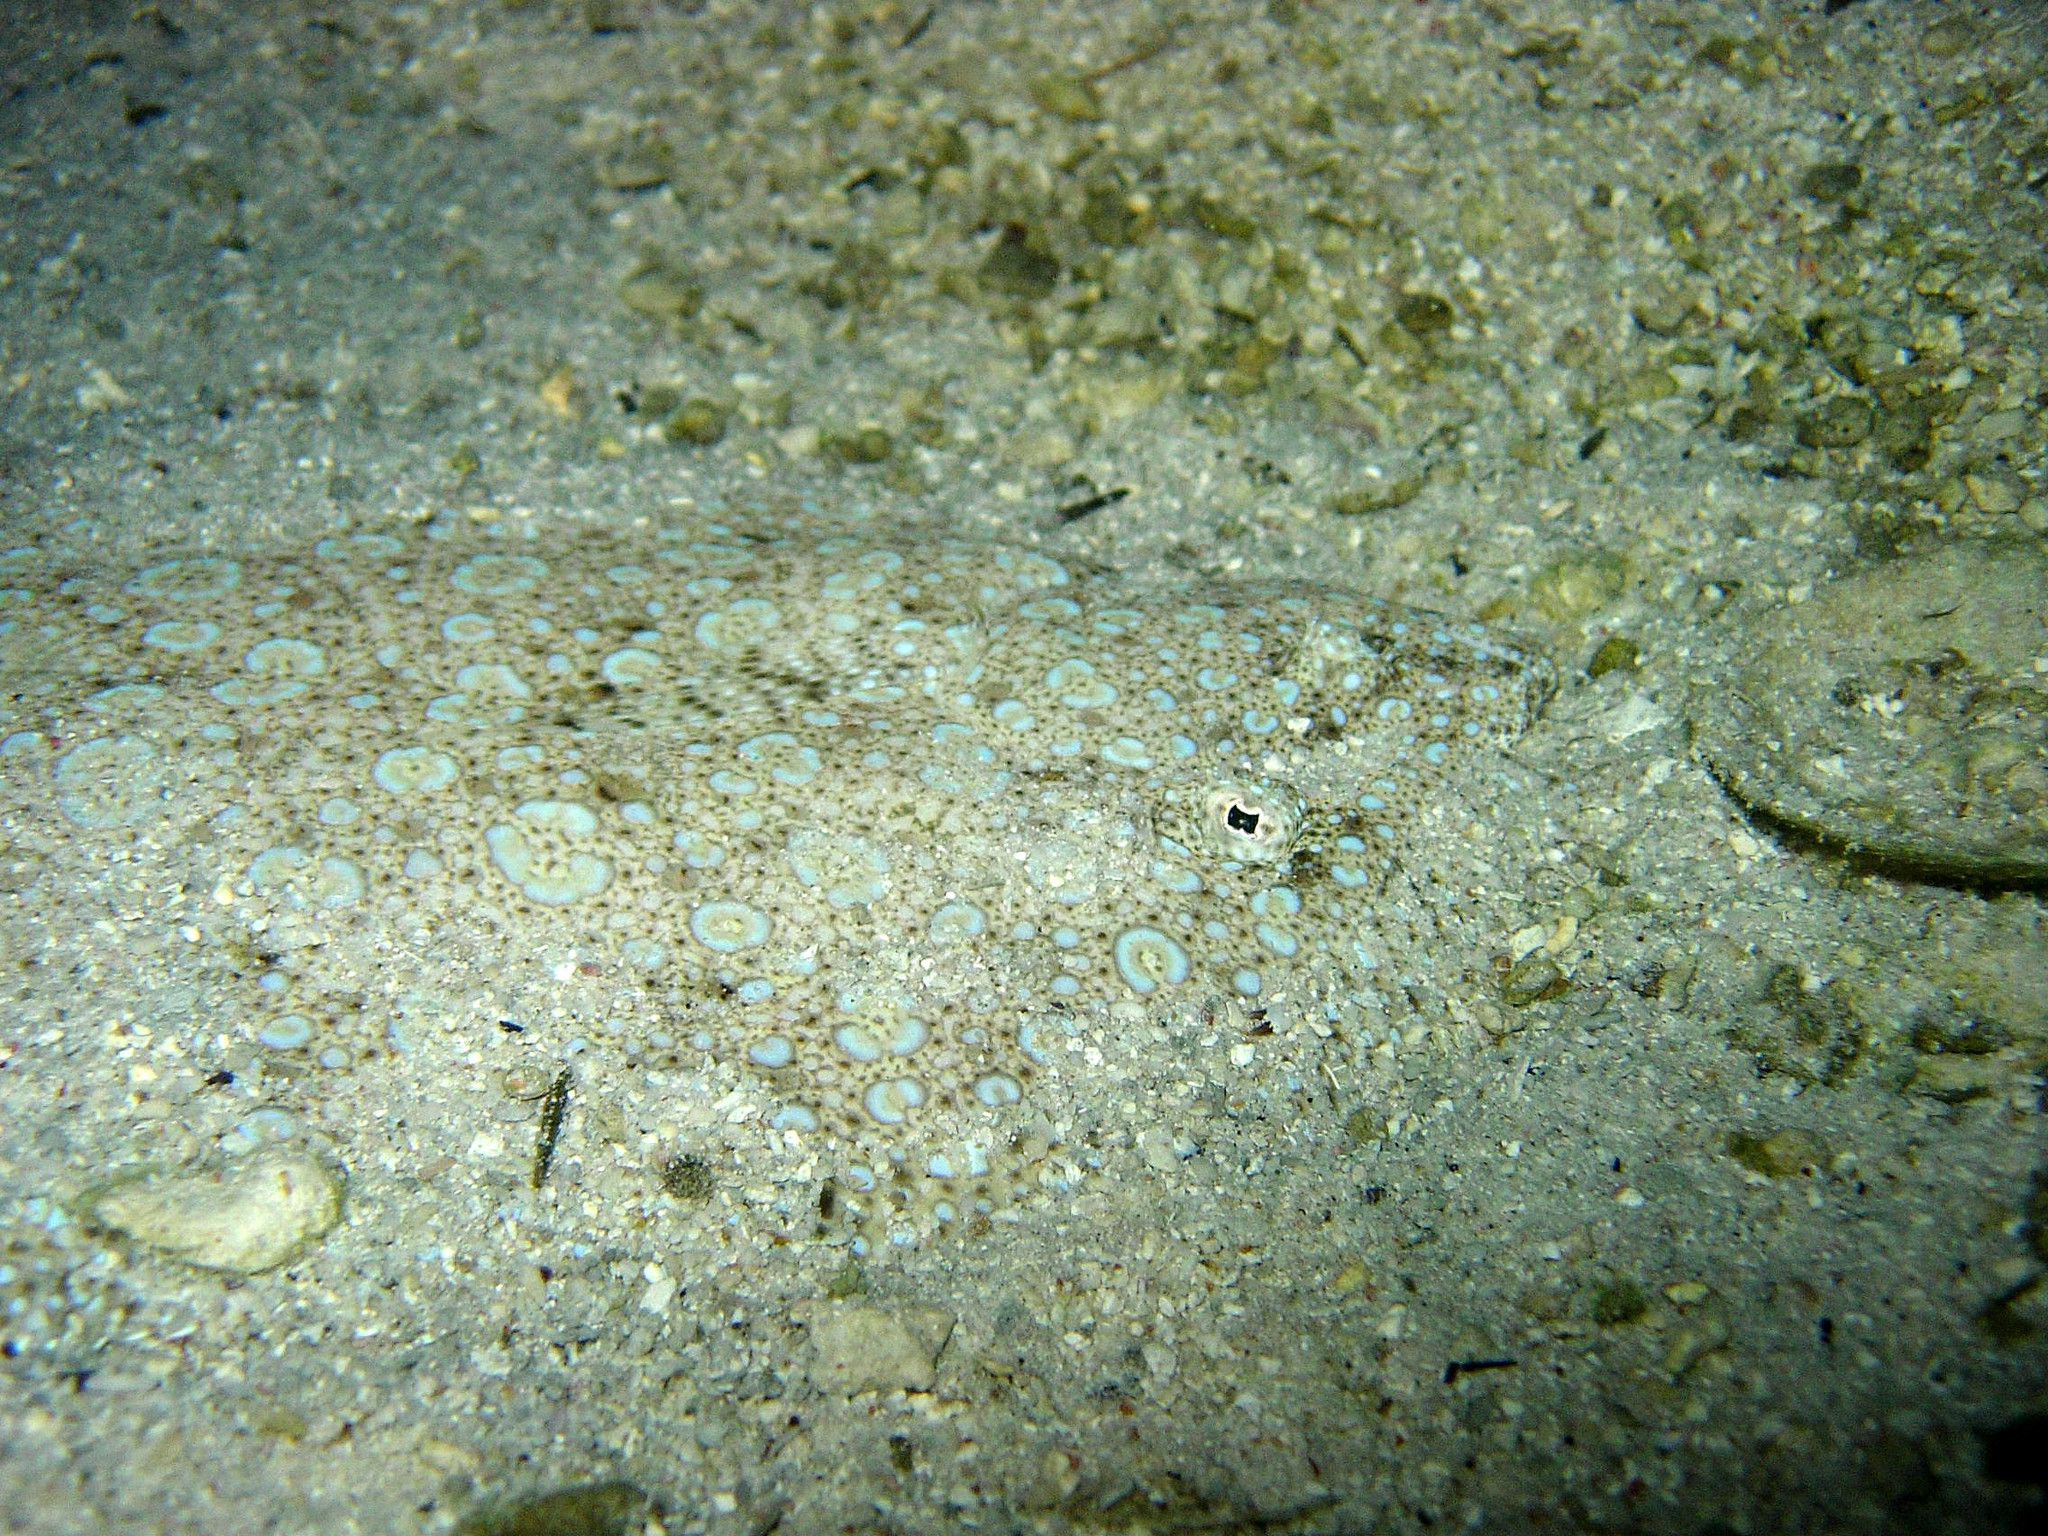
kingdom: Animalia
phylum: Chordata
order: Pleuronectiformes
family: Bothidae
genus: Bothus
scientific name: Bothus mancus
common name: Flowery flounder
